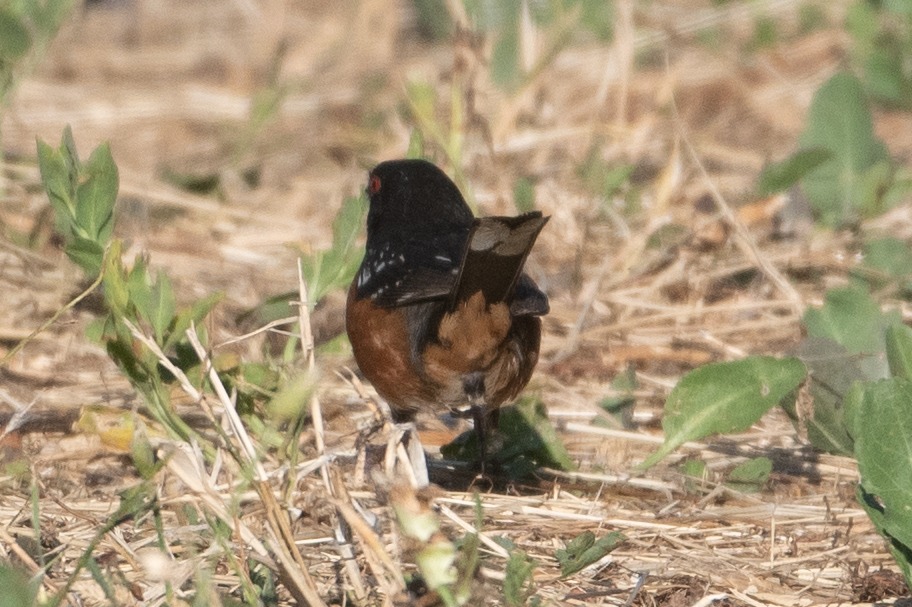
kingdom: Animalia
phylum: Chordata
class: Aves
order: Passeriformes
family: Passerellidae
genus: Pipilo
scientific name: Pipilo maculatus
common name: Spotted towhee
